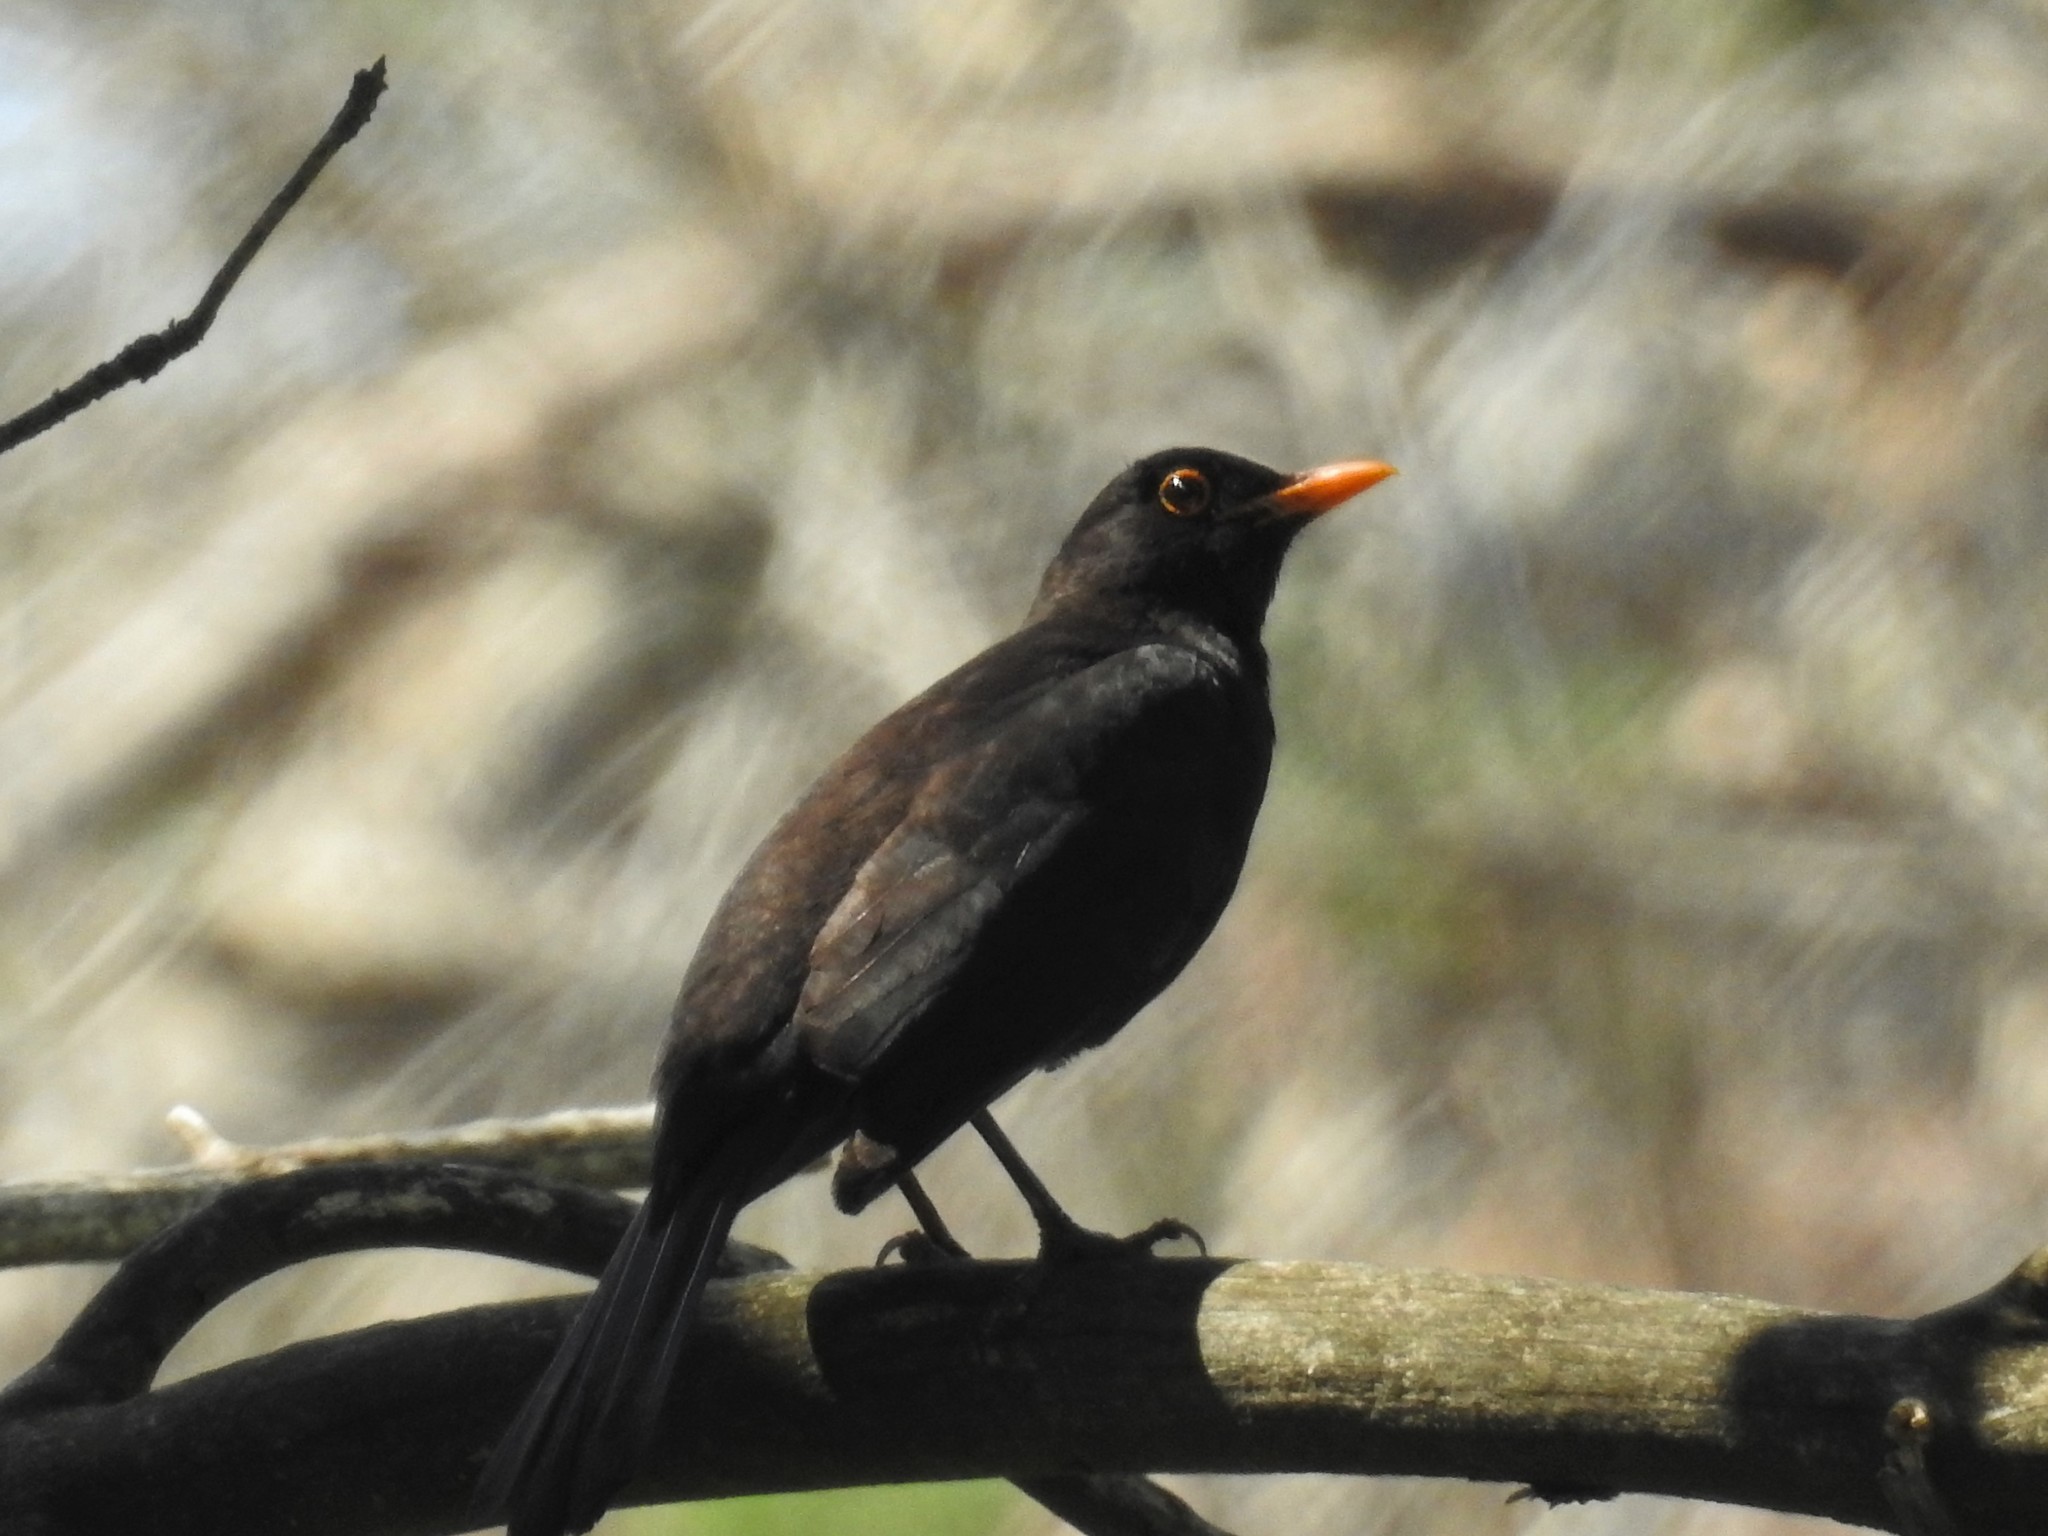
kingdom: Animalia
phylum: Chordata
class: Aves
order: Passeriformes
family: Turdidae
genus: Turdus
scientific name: Turdus merula
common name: Common blackbird
